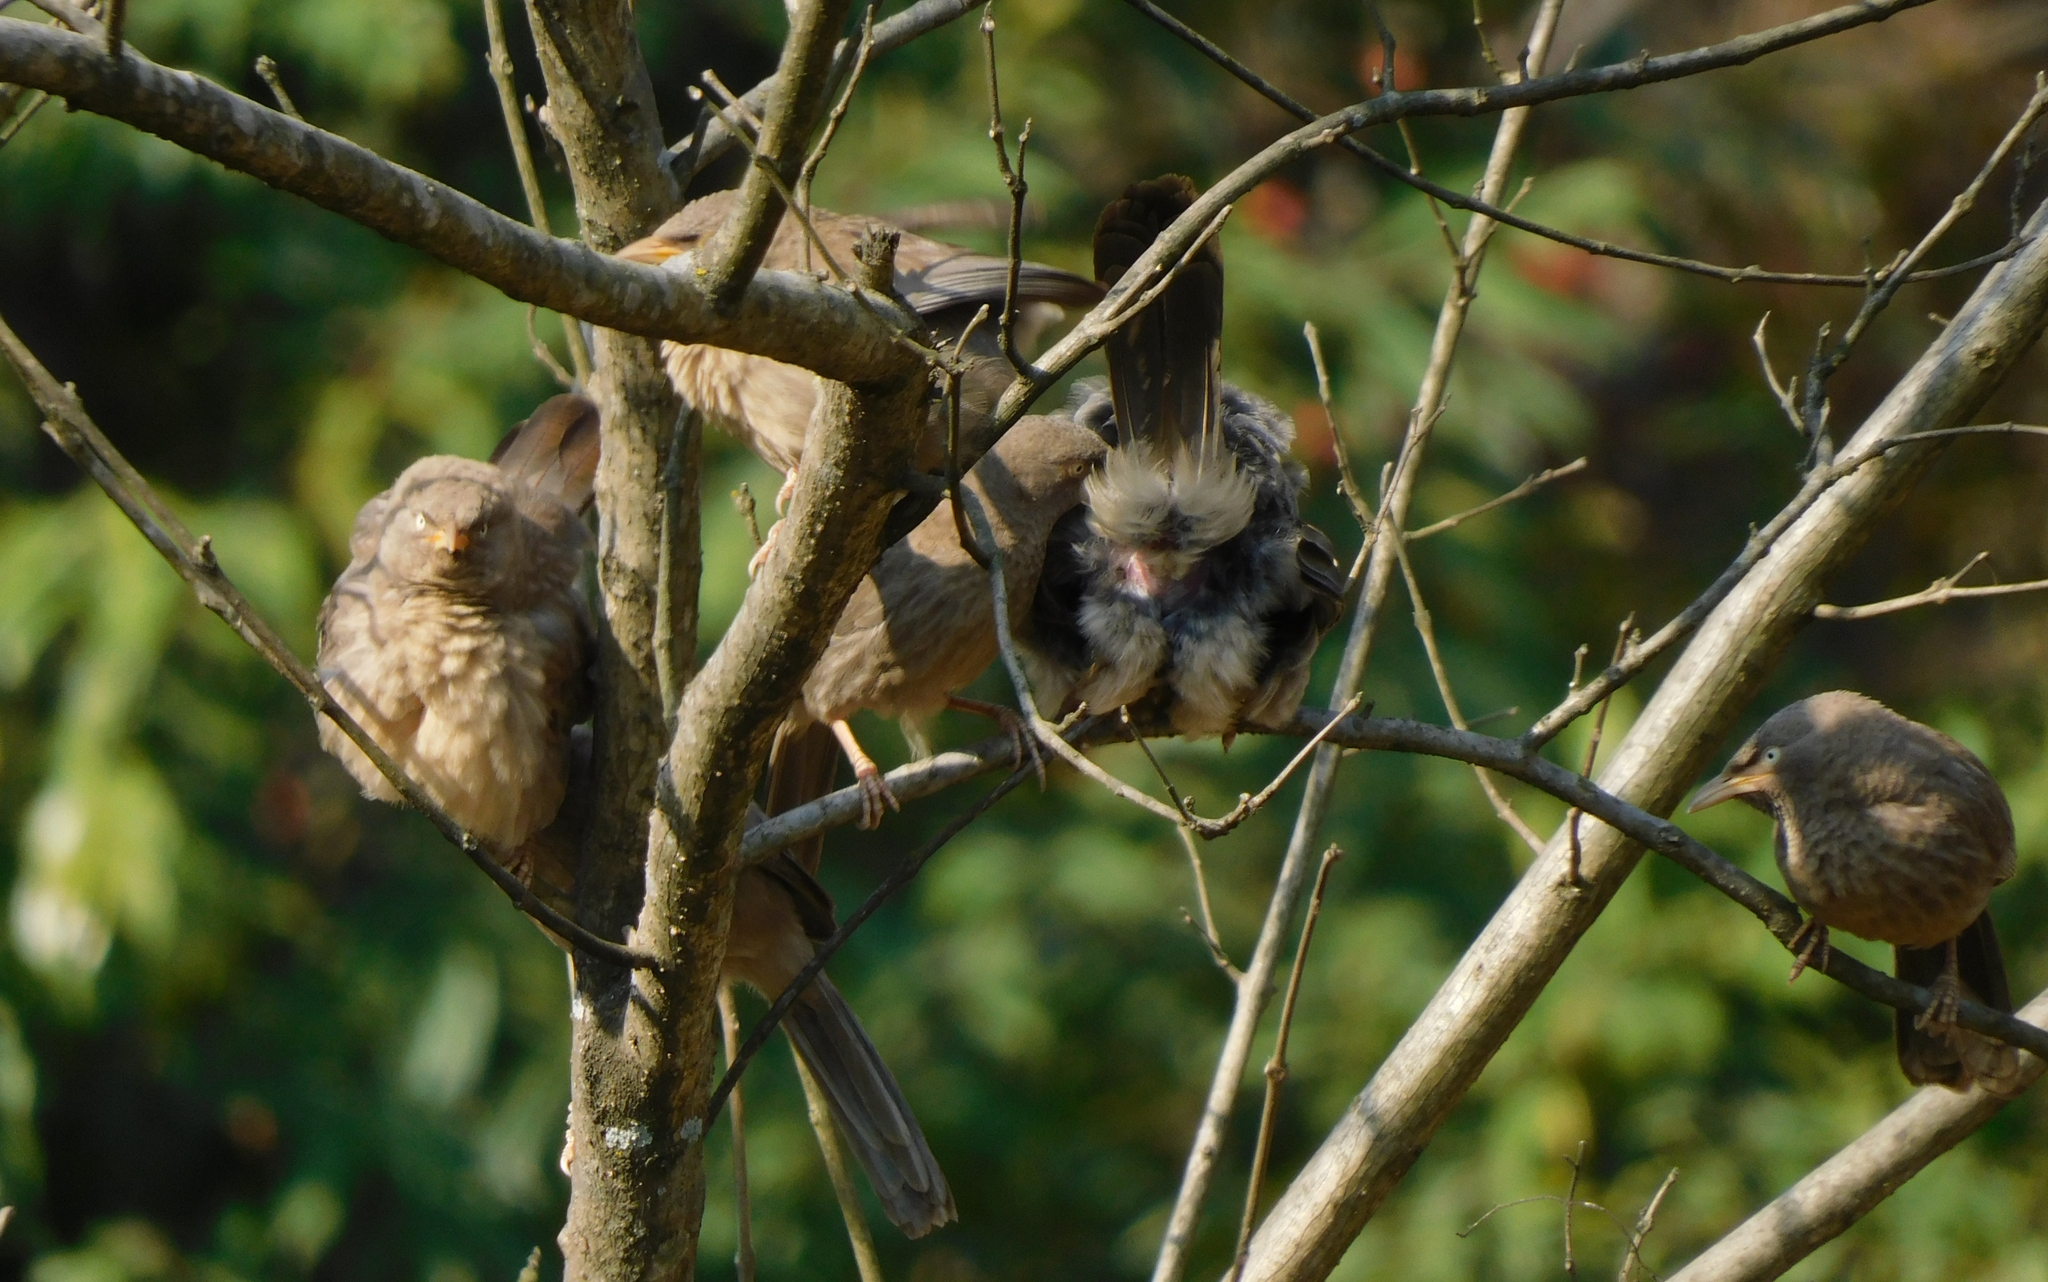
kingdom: Animalia
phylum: Chordata
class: Aves
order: Passeriformes
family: Leiothrichidae
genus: Turdoides
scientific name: Turdoides striata
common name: Jungle babbler
